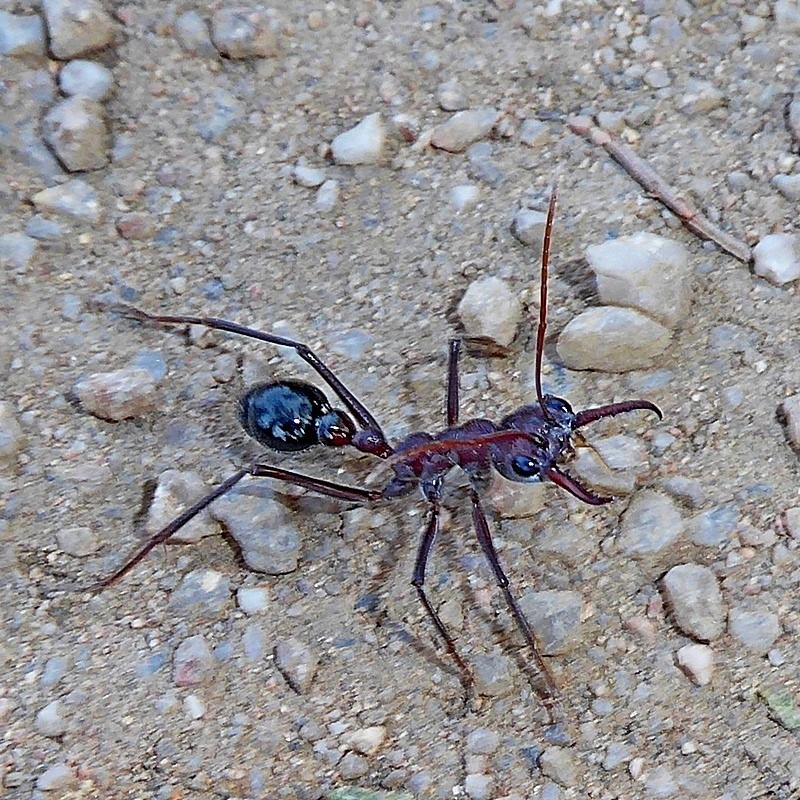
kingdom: Animalia
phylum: Arthropoda
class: Insecta
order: Hymenoptera
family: Formicidae
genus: Myrmecia
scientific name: Myrmecia simillima
